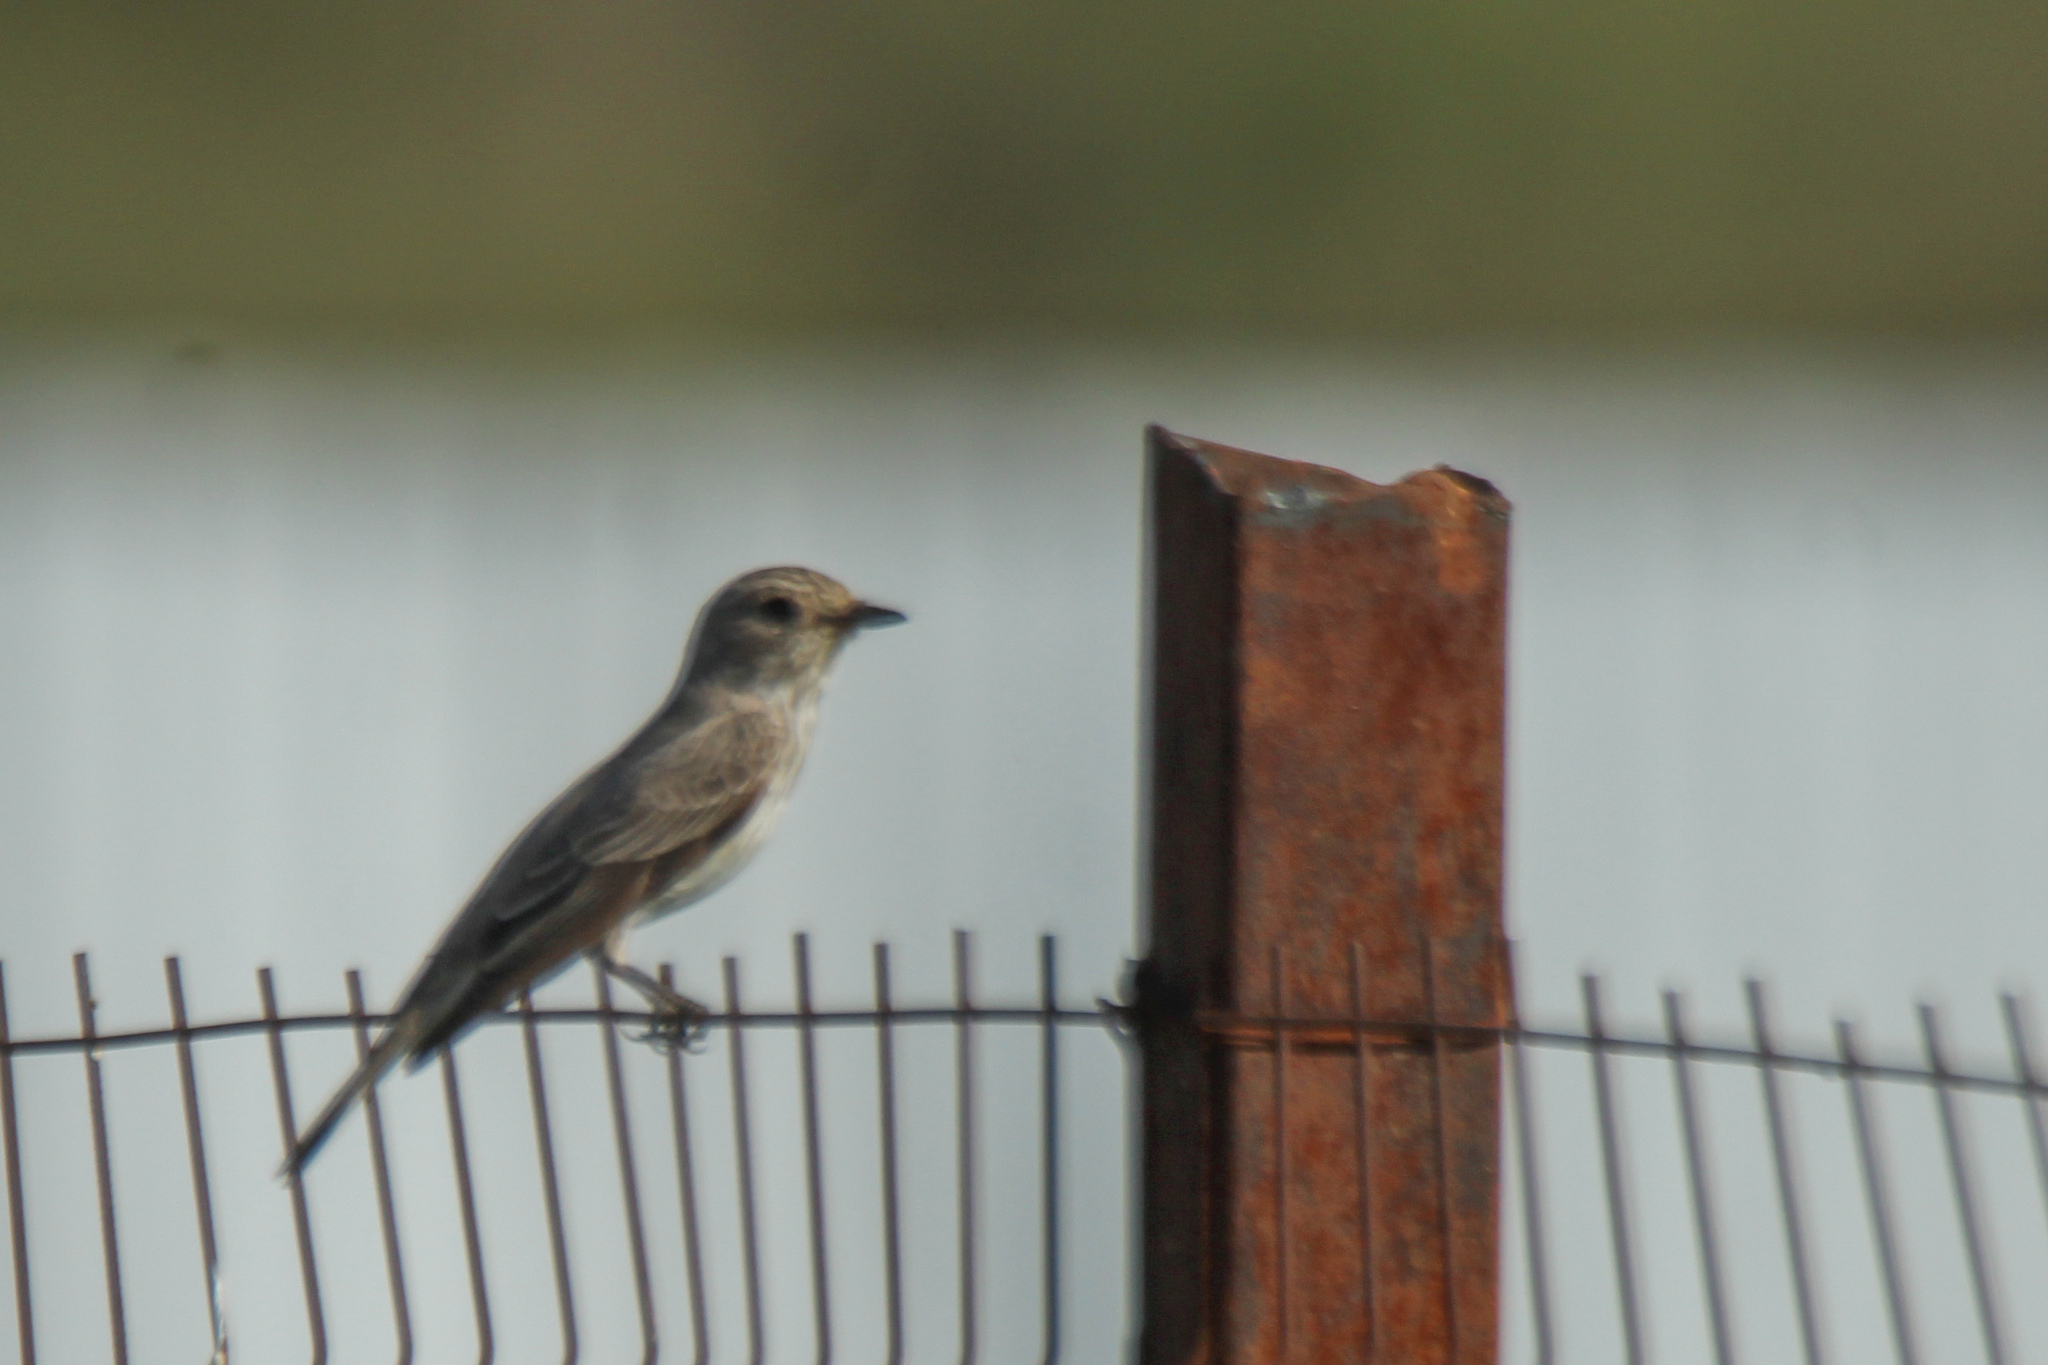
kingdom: Animalia
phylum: Chordata
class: Aves
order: Passeriformes
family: Muscicapidae
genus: Muscicapa
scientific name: Muscicapa striata
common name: Spotted flycatcher
